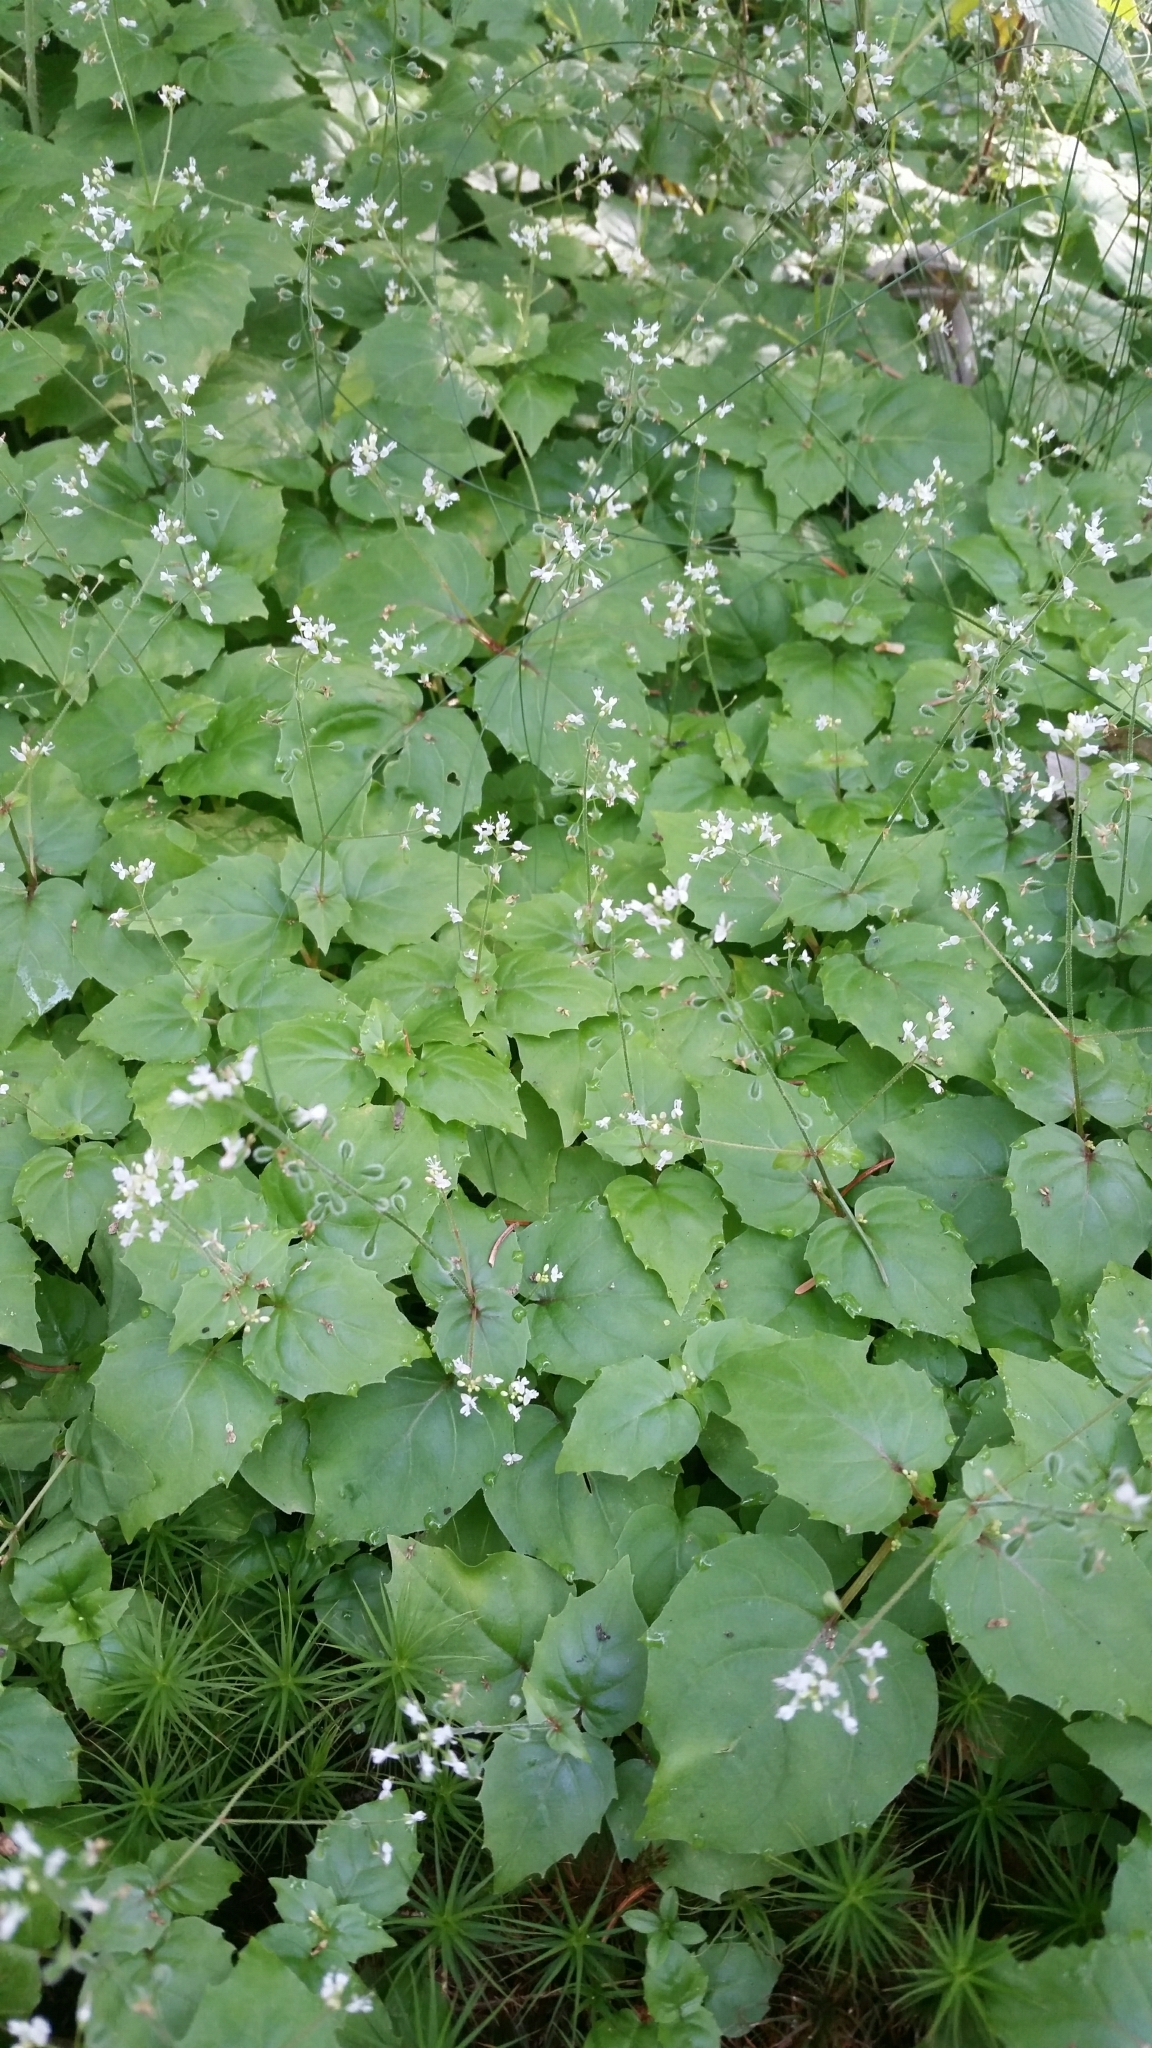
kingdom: Plantae
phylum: Tracheophyta
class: Magnoliopsida
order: Myrtales
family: Onagraceae
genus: Circaea
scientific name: Circaea canadensis
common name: Broad-leaved enchanter's nightshade
